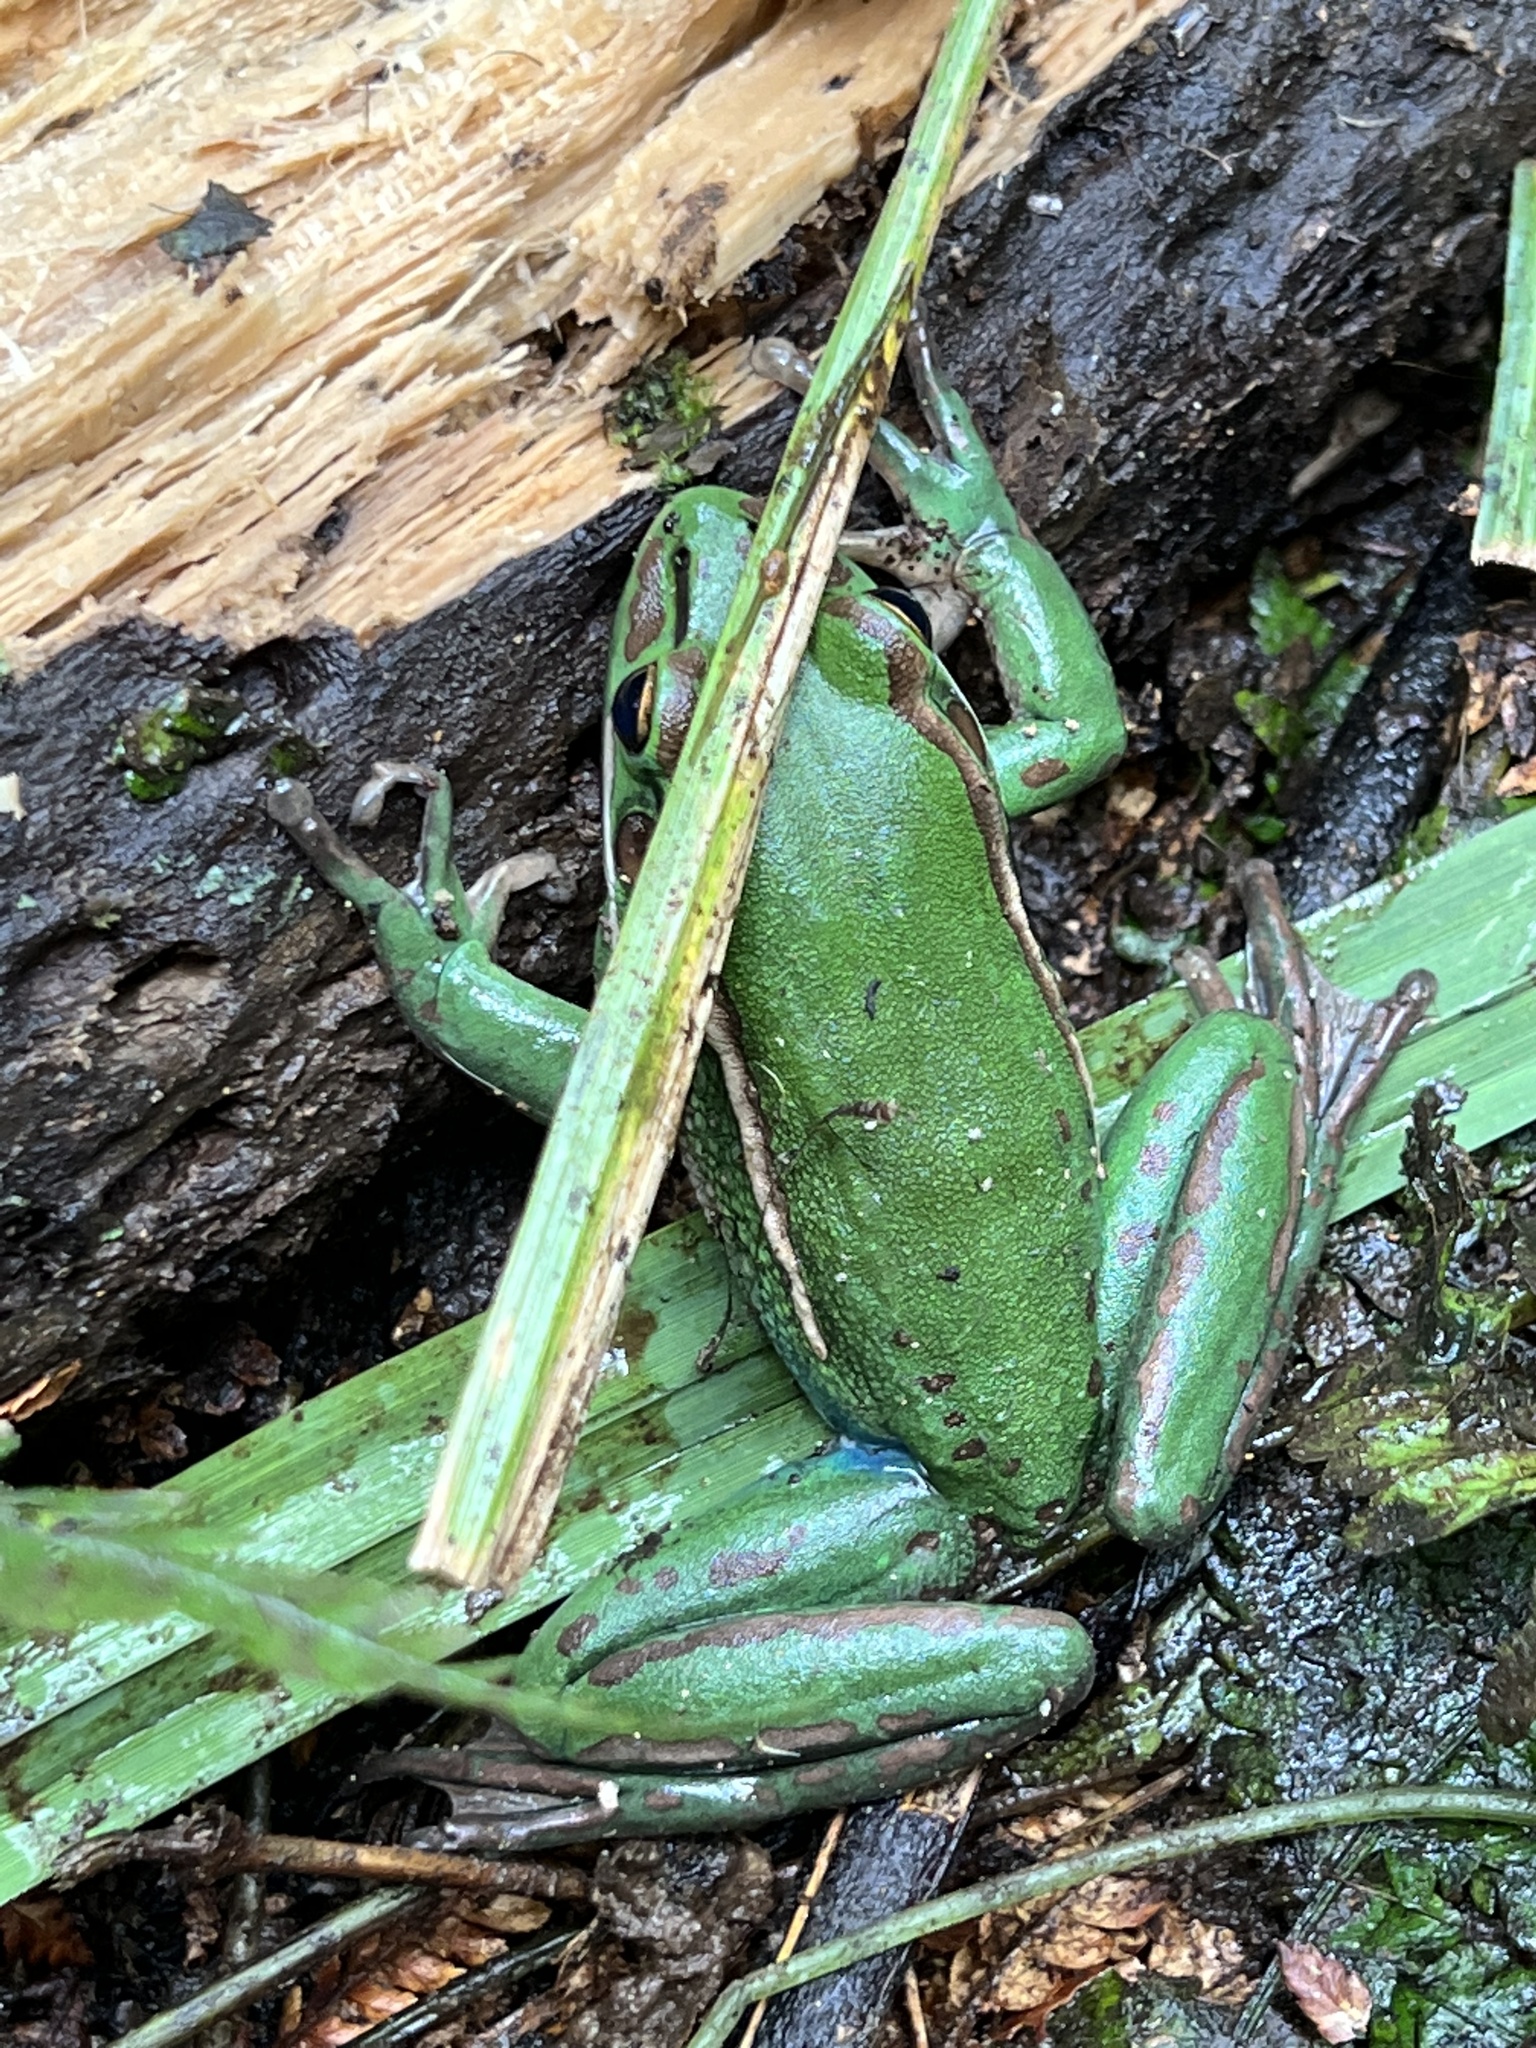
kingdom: Animalia
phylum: Chordata
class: Amphibia
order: Anura
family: Pelodryadidae
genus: Ranoidea
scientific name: Ranoidea aurea
